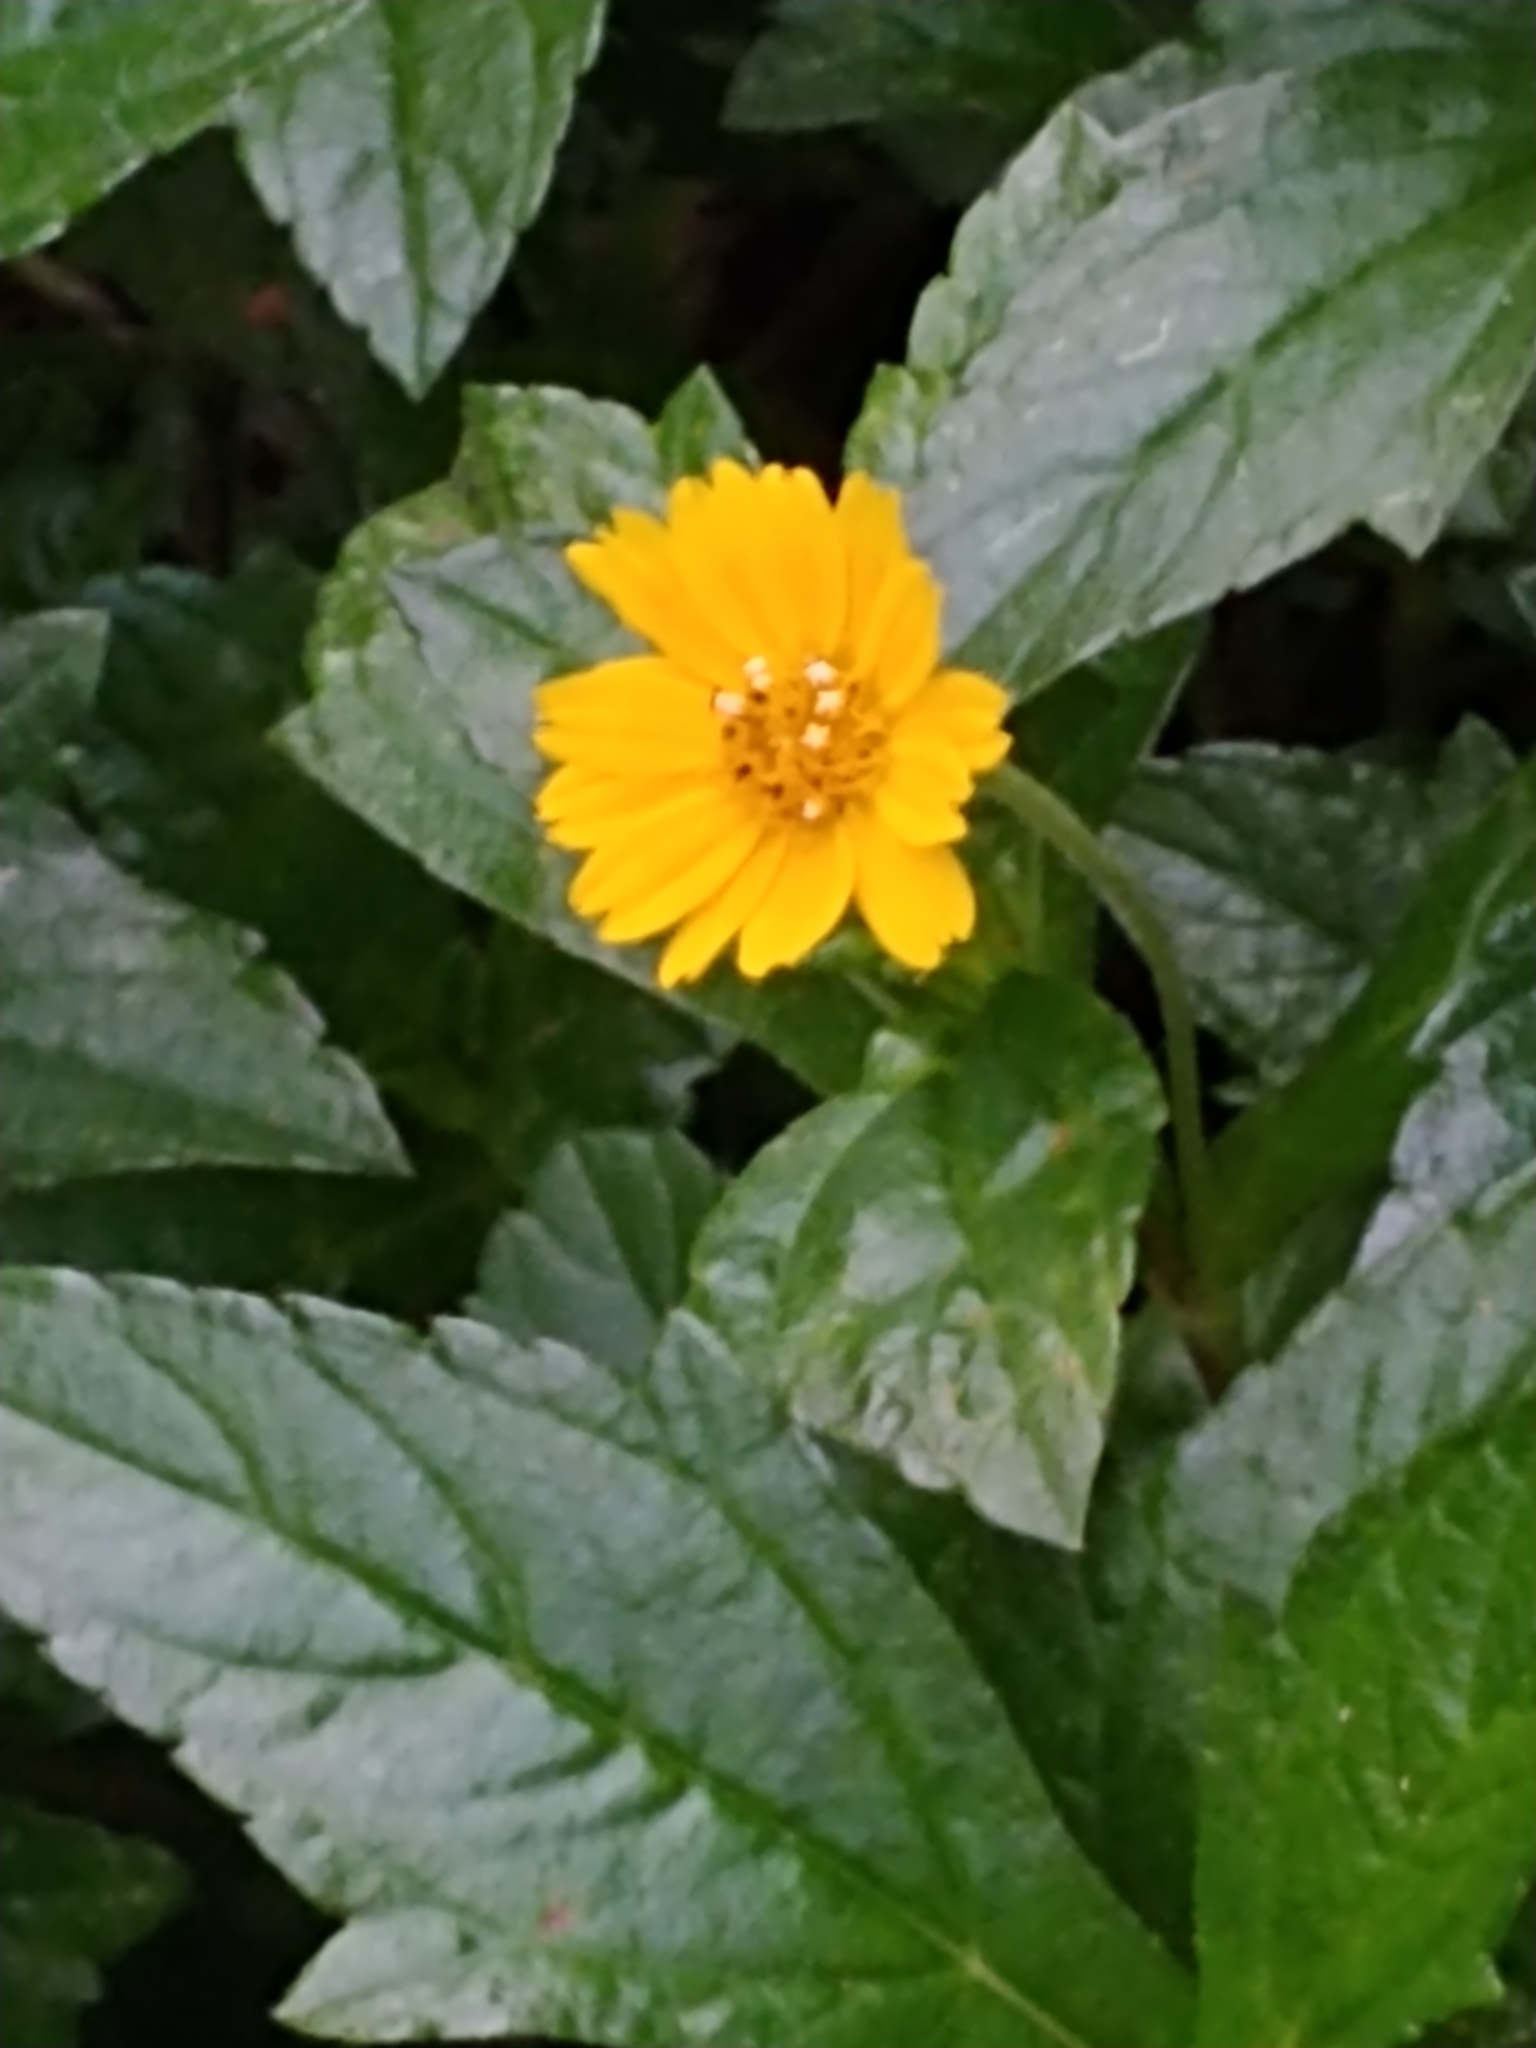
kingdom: Plantae
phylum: Tracheophyta
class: Magnoliopsida
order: Asterales
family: Asteraceae
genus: Sphagneticola
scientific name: Sphagneticola trilobata
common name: Bay biscayne creeping-oxeye
